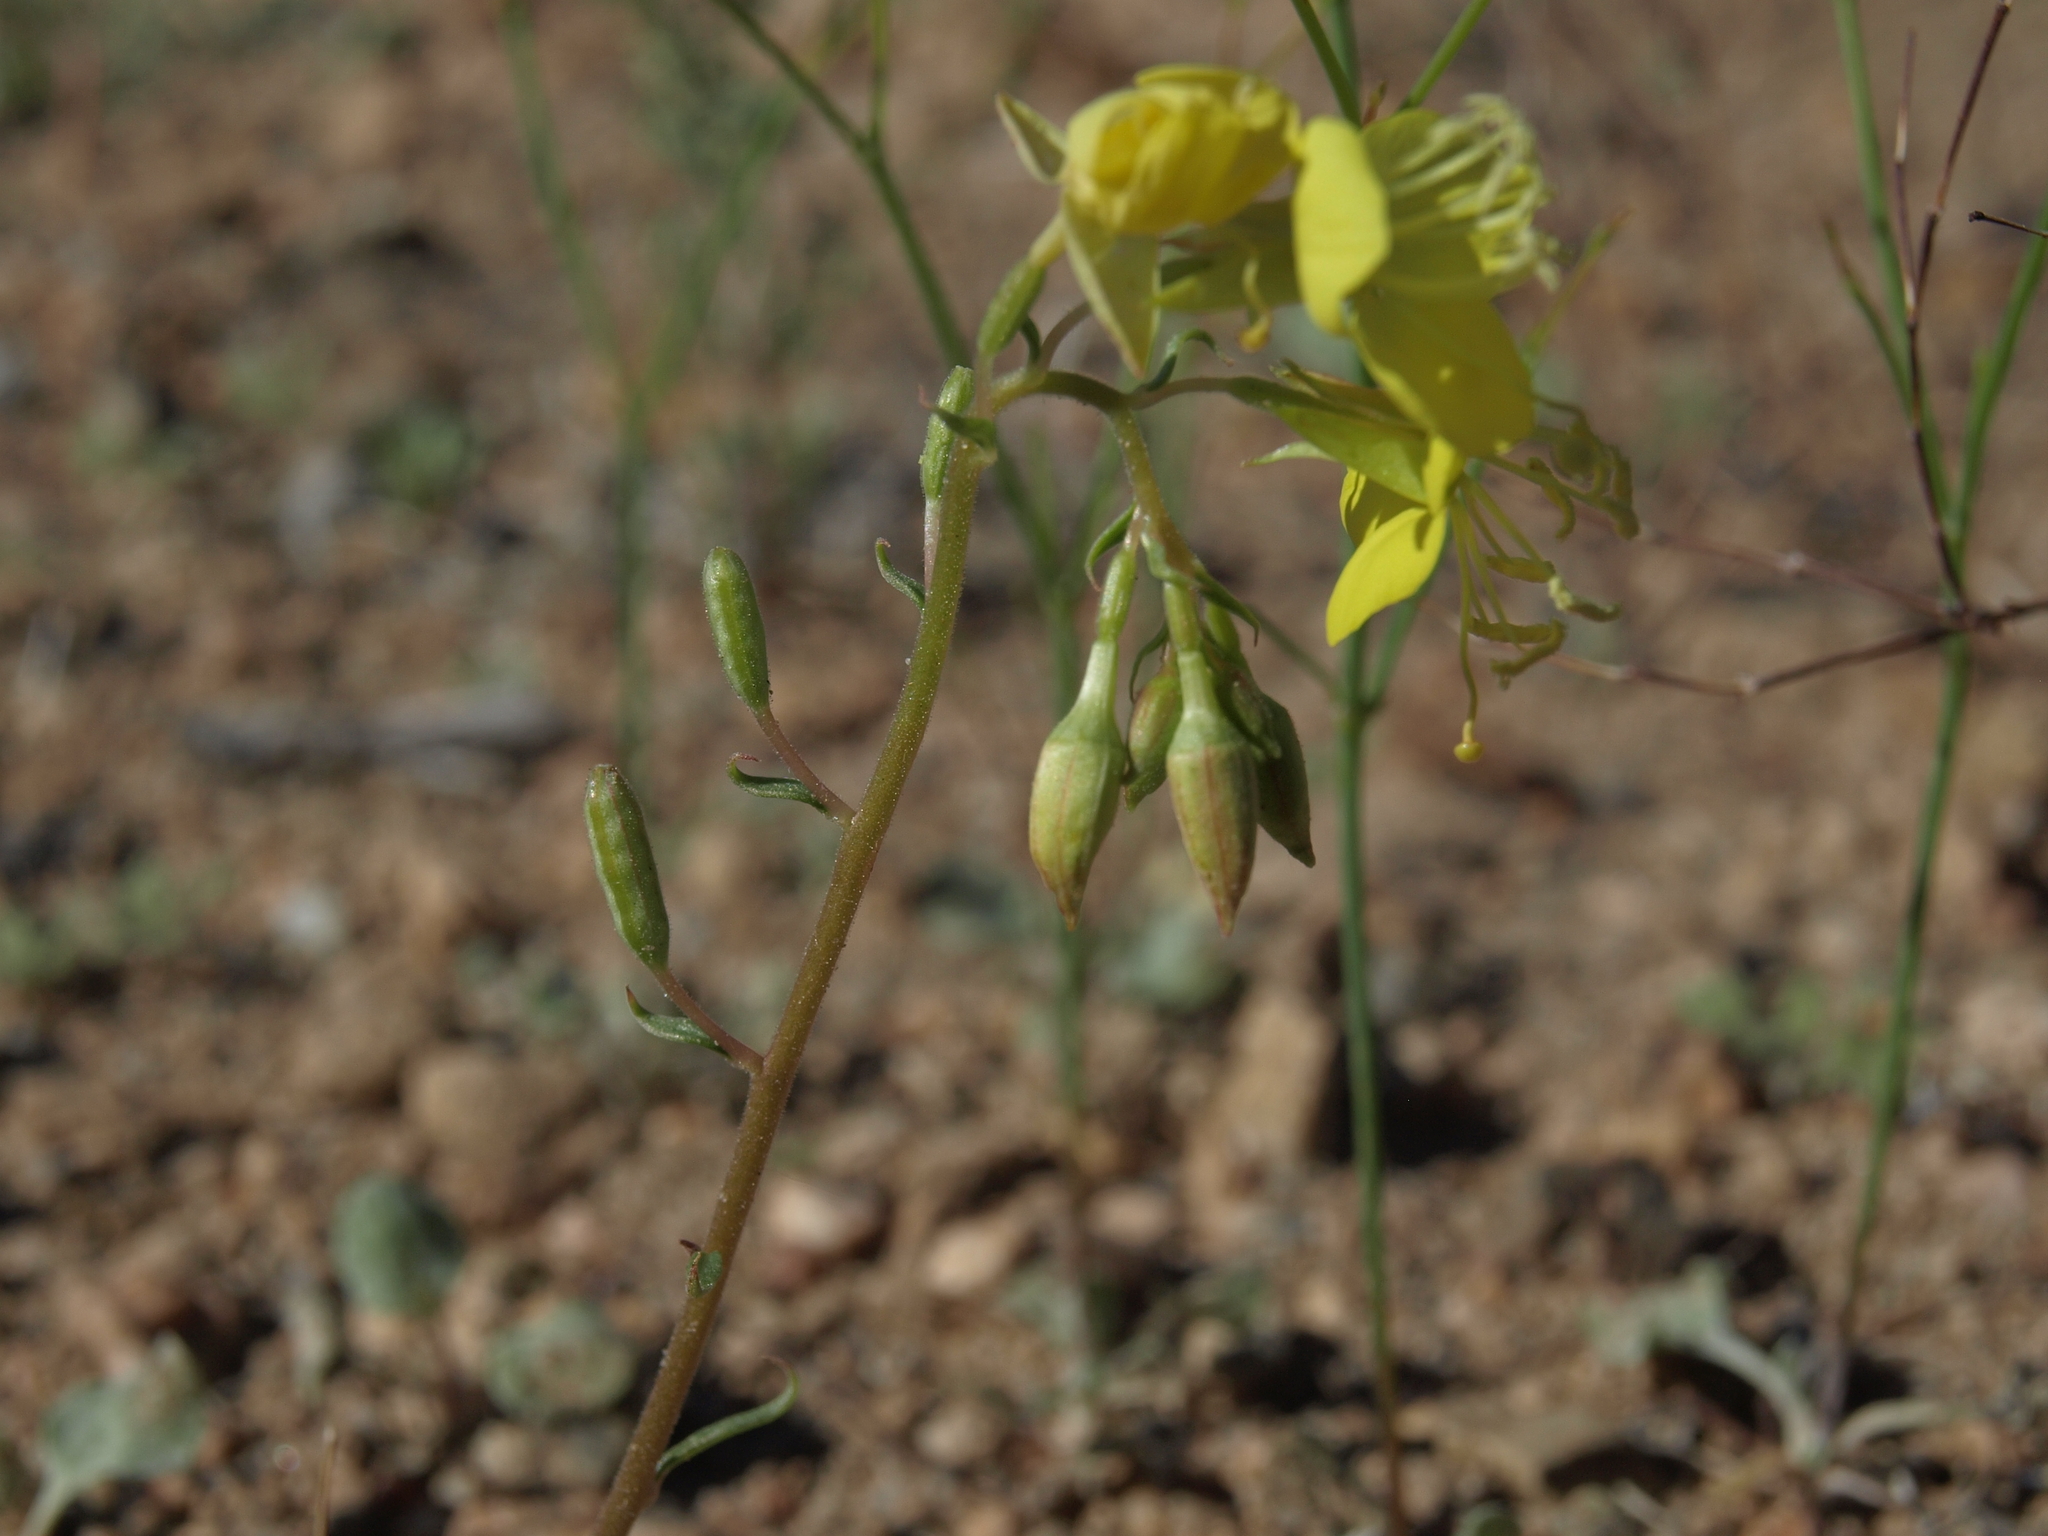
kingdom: Plantae
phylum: Tracheophyta
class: Magnoliopsida
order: Myrtales
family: Onagraceae
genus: Chylismia
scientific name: Chylismia claviformis
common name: Browneyes
